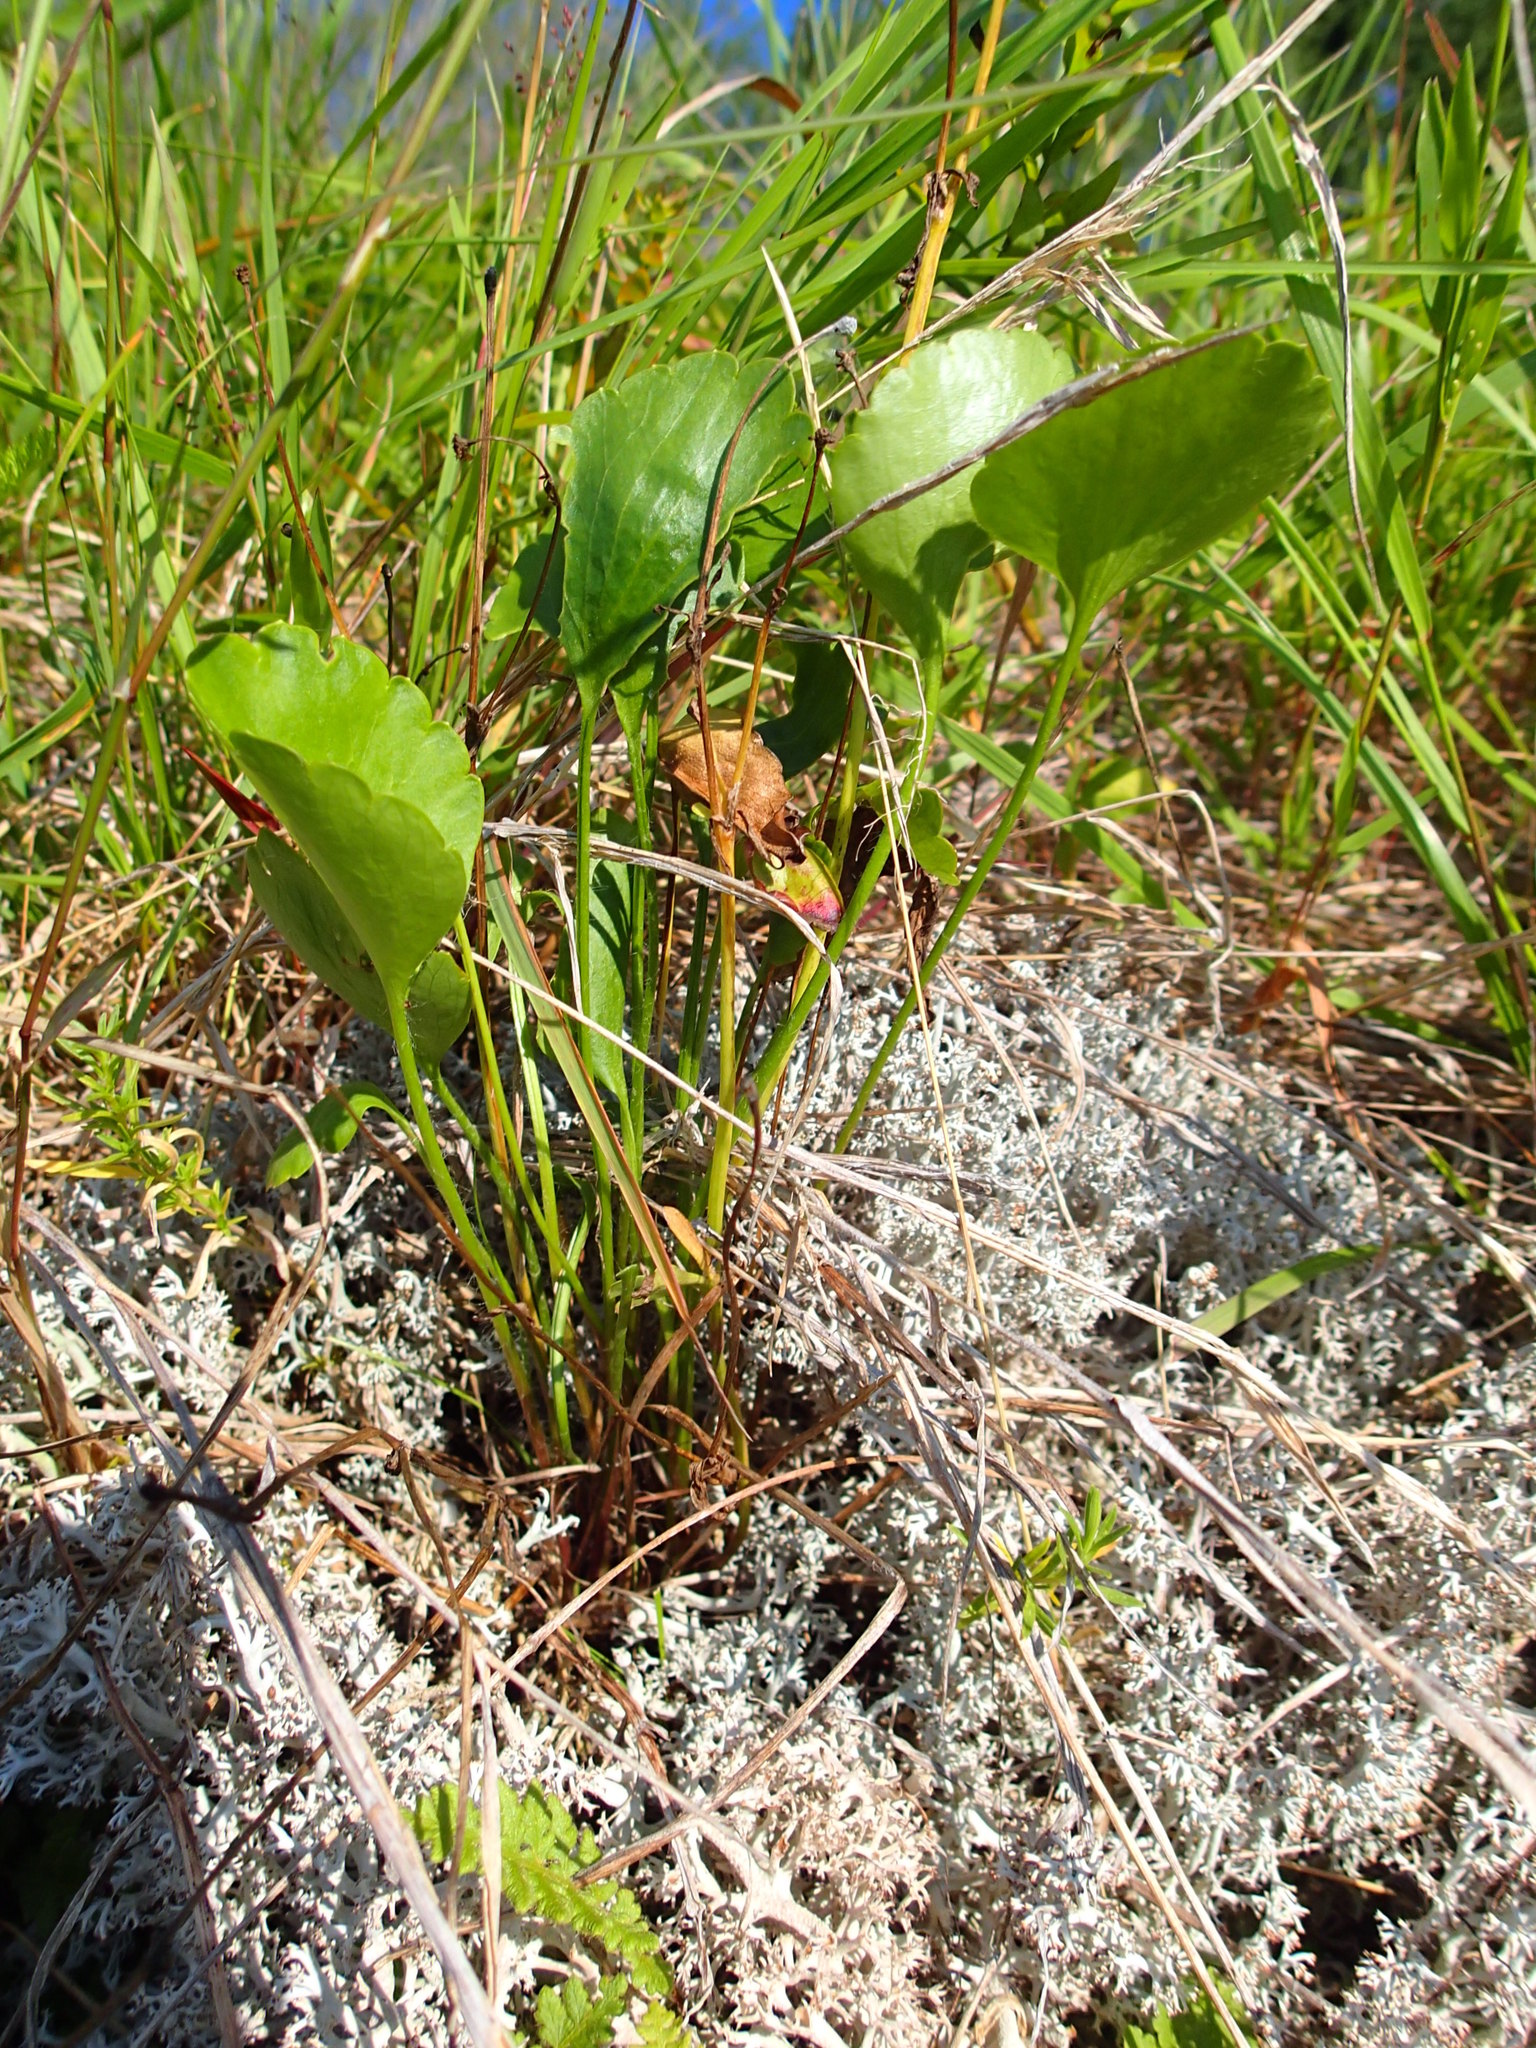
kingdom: Plantae
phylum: Tracheophyta
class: Magnoliopsida
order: Ranunculales
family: Ranunculaceae
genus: Ranunculus
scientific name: Ranunculus rhomboideus
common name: Prairie buttercup
